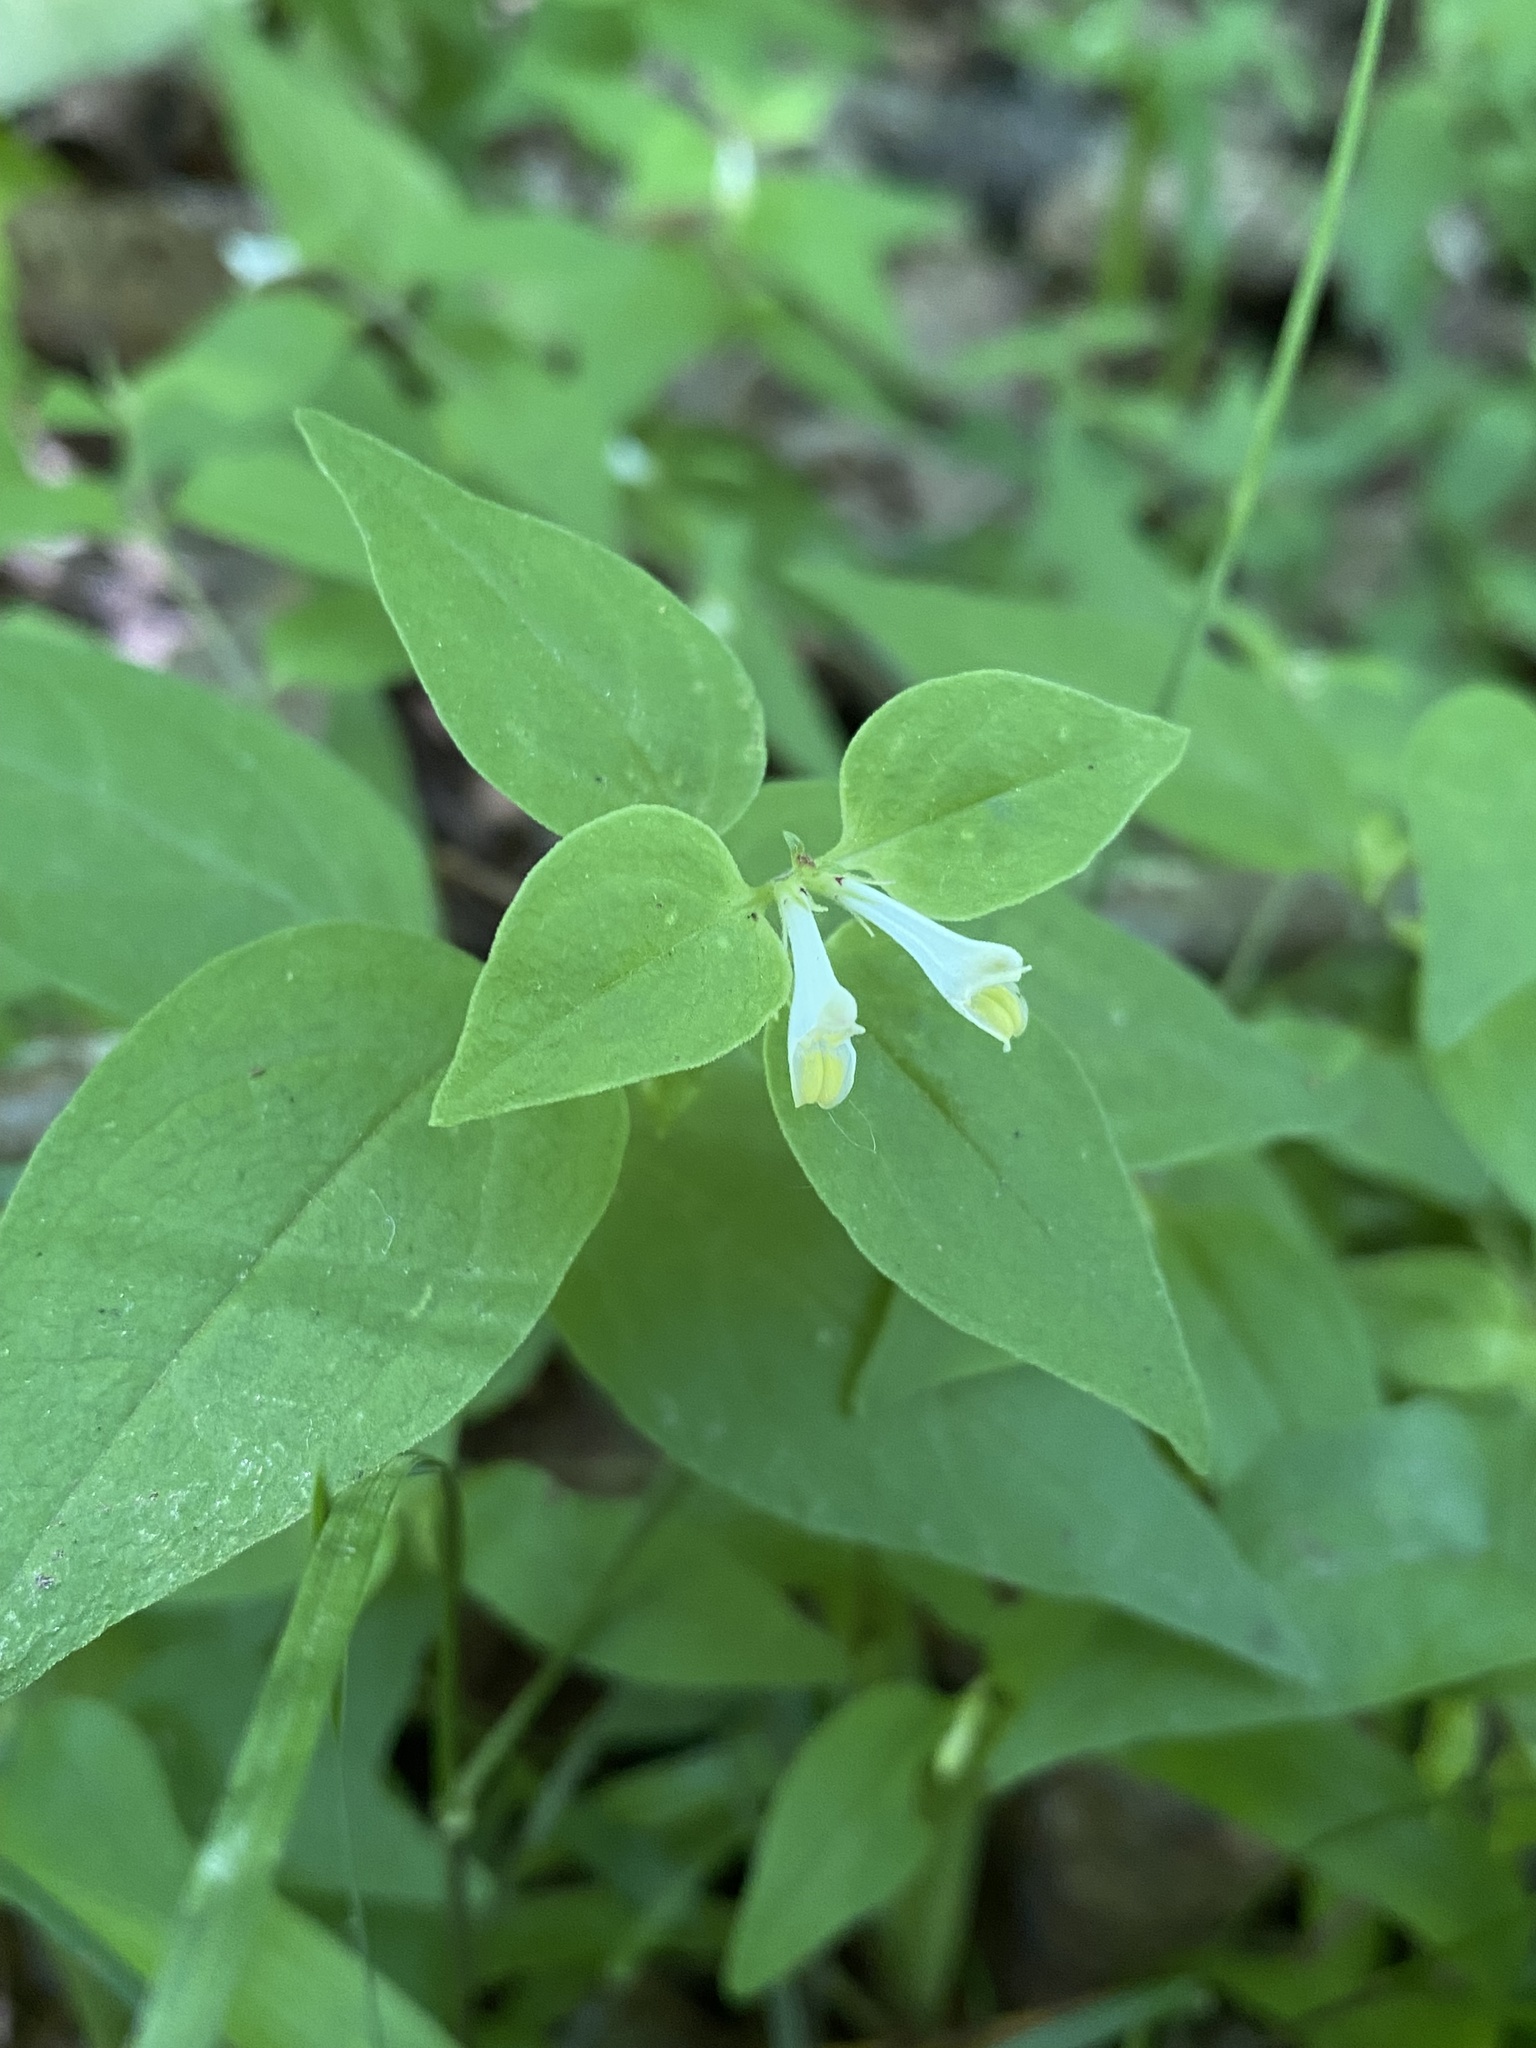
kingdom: Plantae
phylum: Tracheophyta
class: Magnoliopsida
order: Lamiales
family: Orobanchaceae
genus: Melampyrum
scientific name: Melampyrum lineare
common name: American cow-wheat
